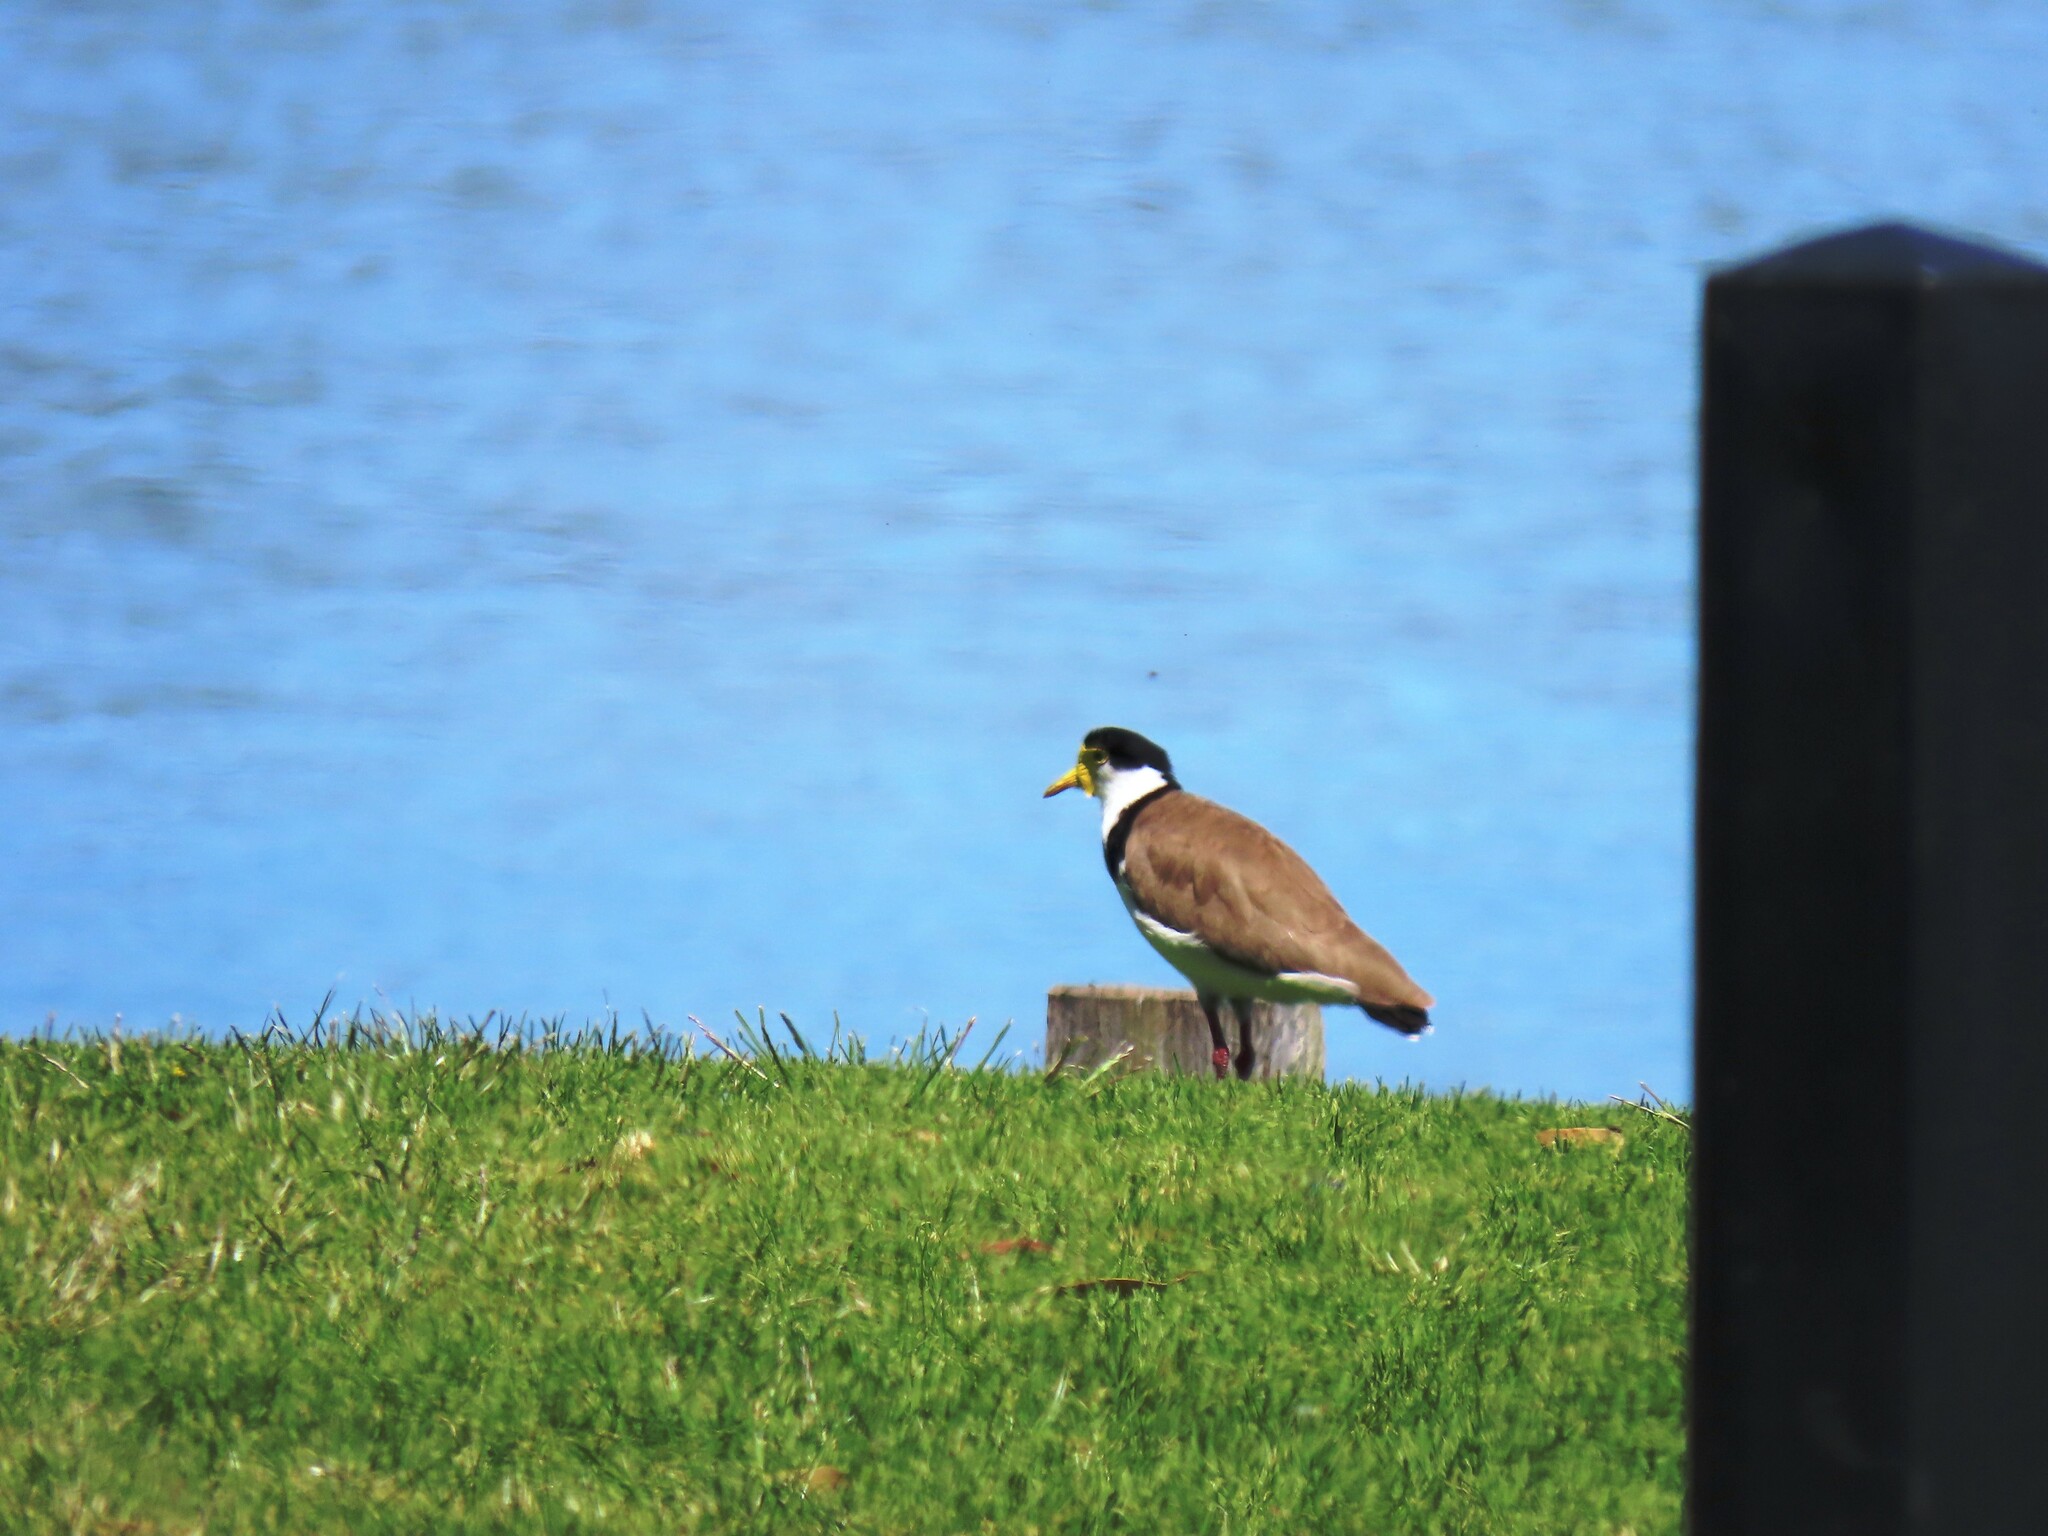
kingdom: Animalia
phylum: Chordata
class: Aves
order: Charadriiformes
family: Charadriidae
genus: Vanellus
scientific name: Vanellus miles
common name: Masked lapwing
